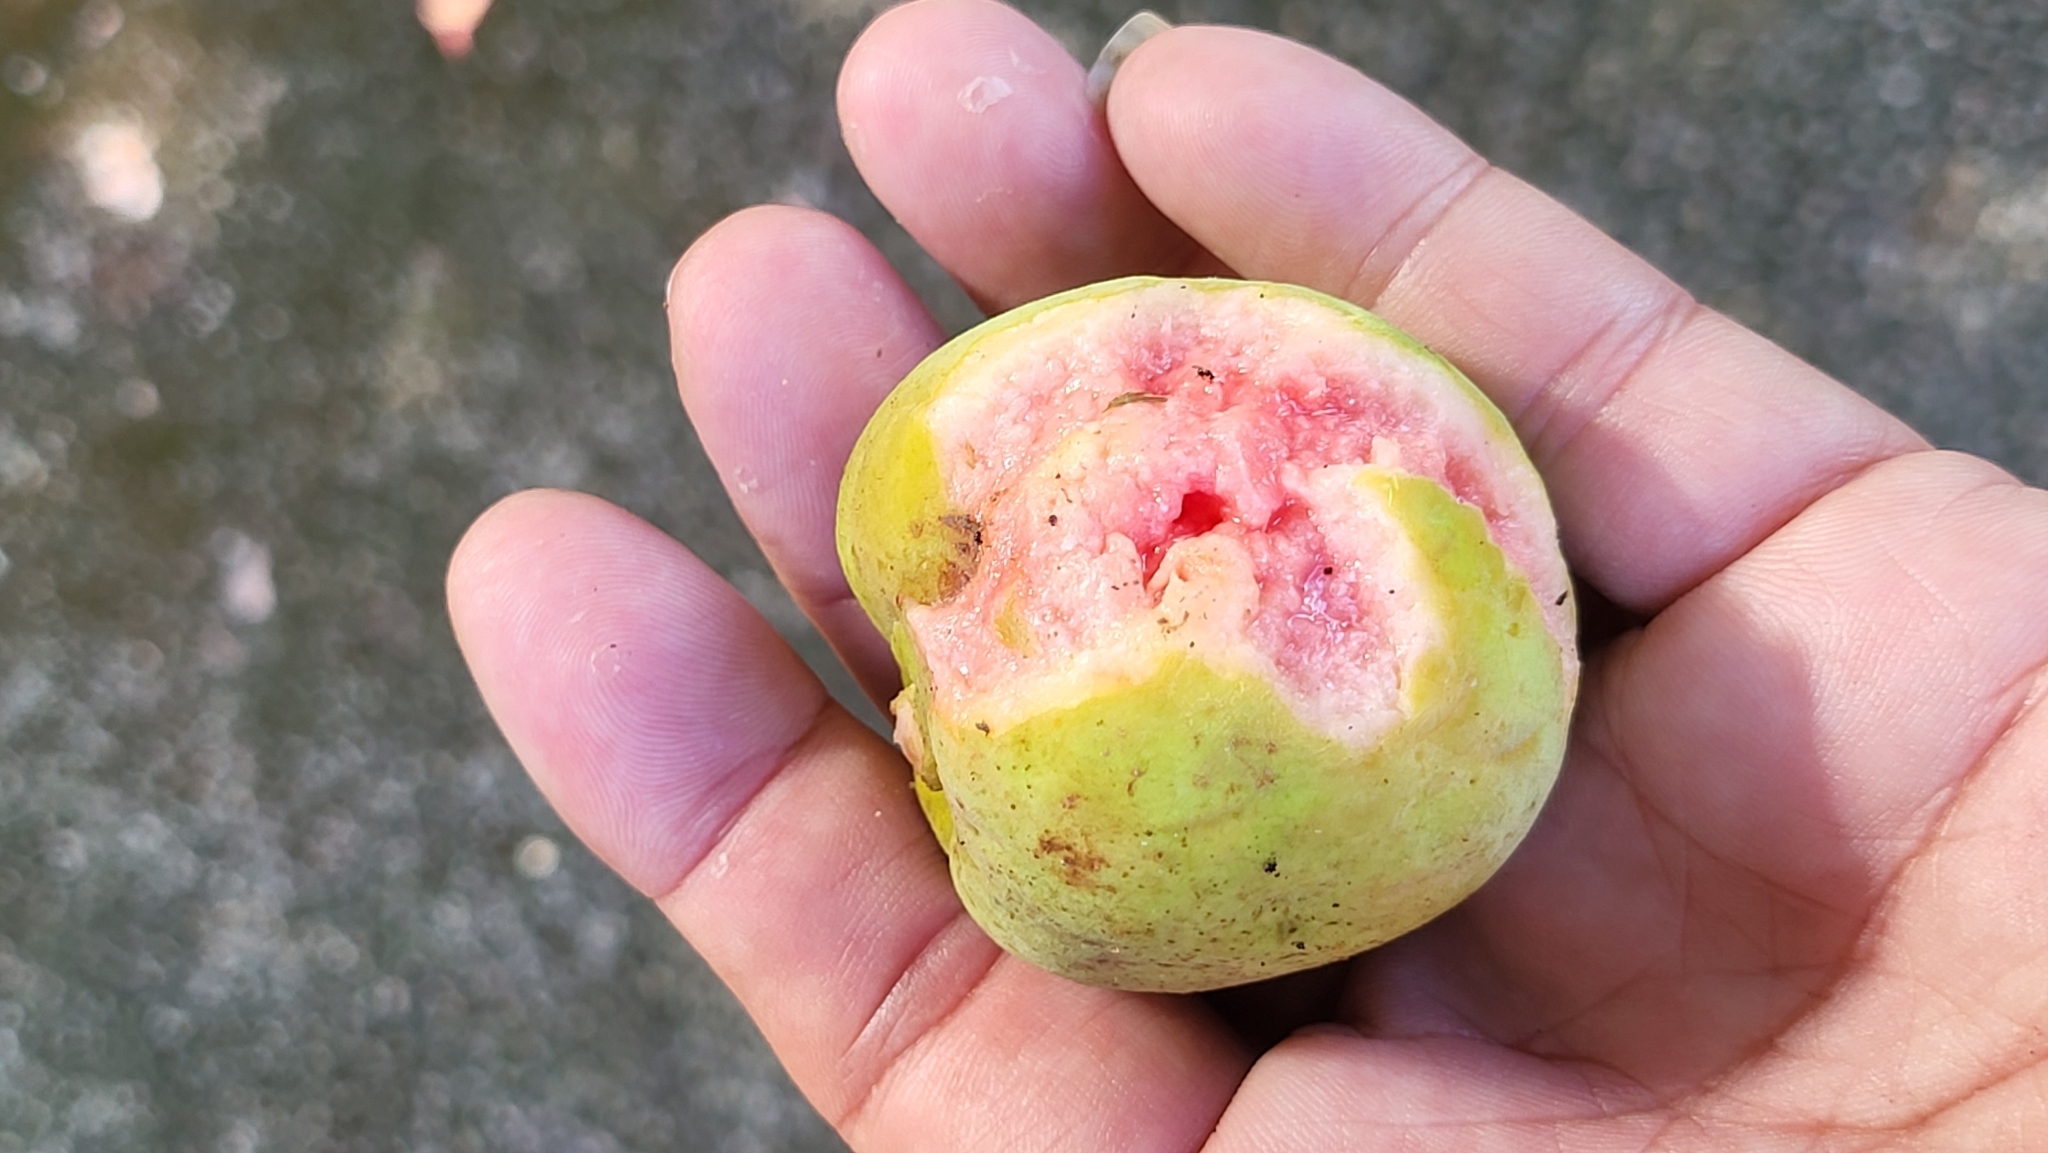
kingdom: Plantae
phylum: Tracheophyta
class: Magnoliopsida
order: Rosales
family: Moraceae
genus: Artocarpus
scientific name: Artocarpus lacucha
